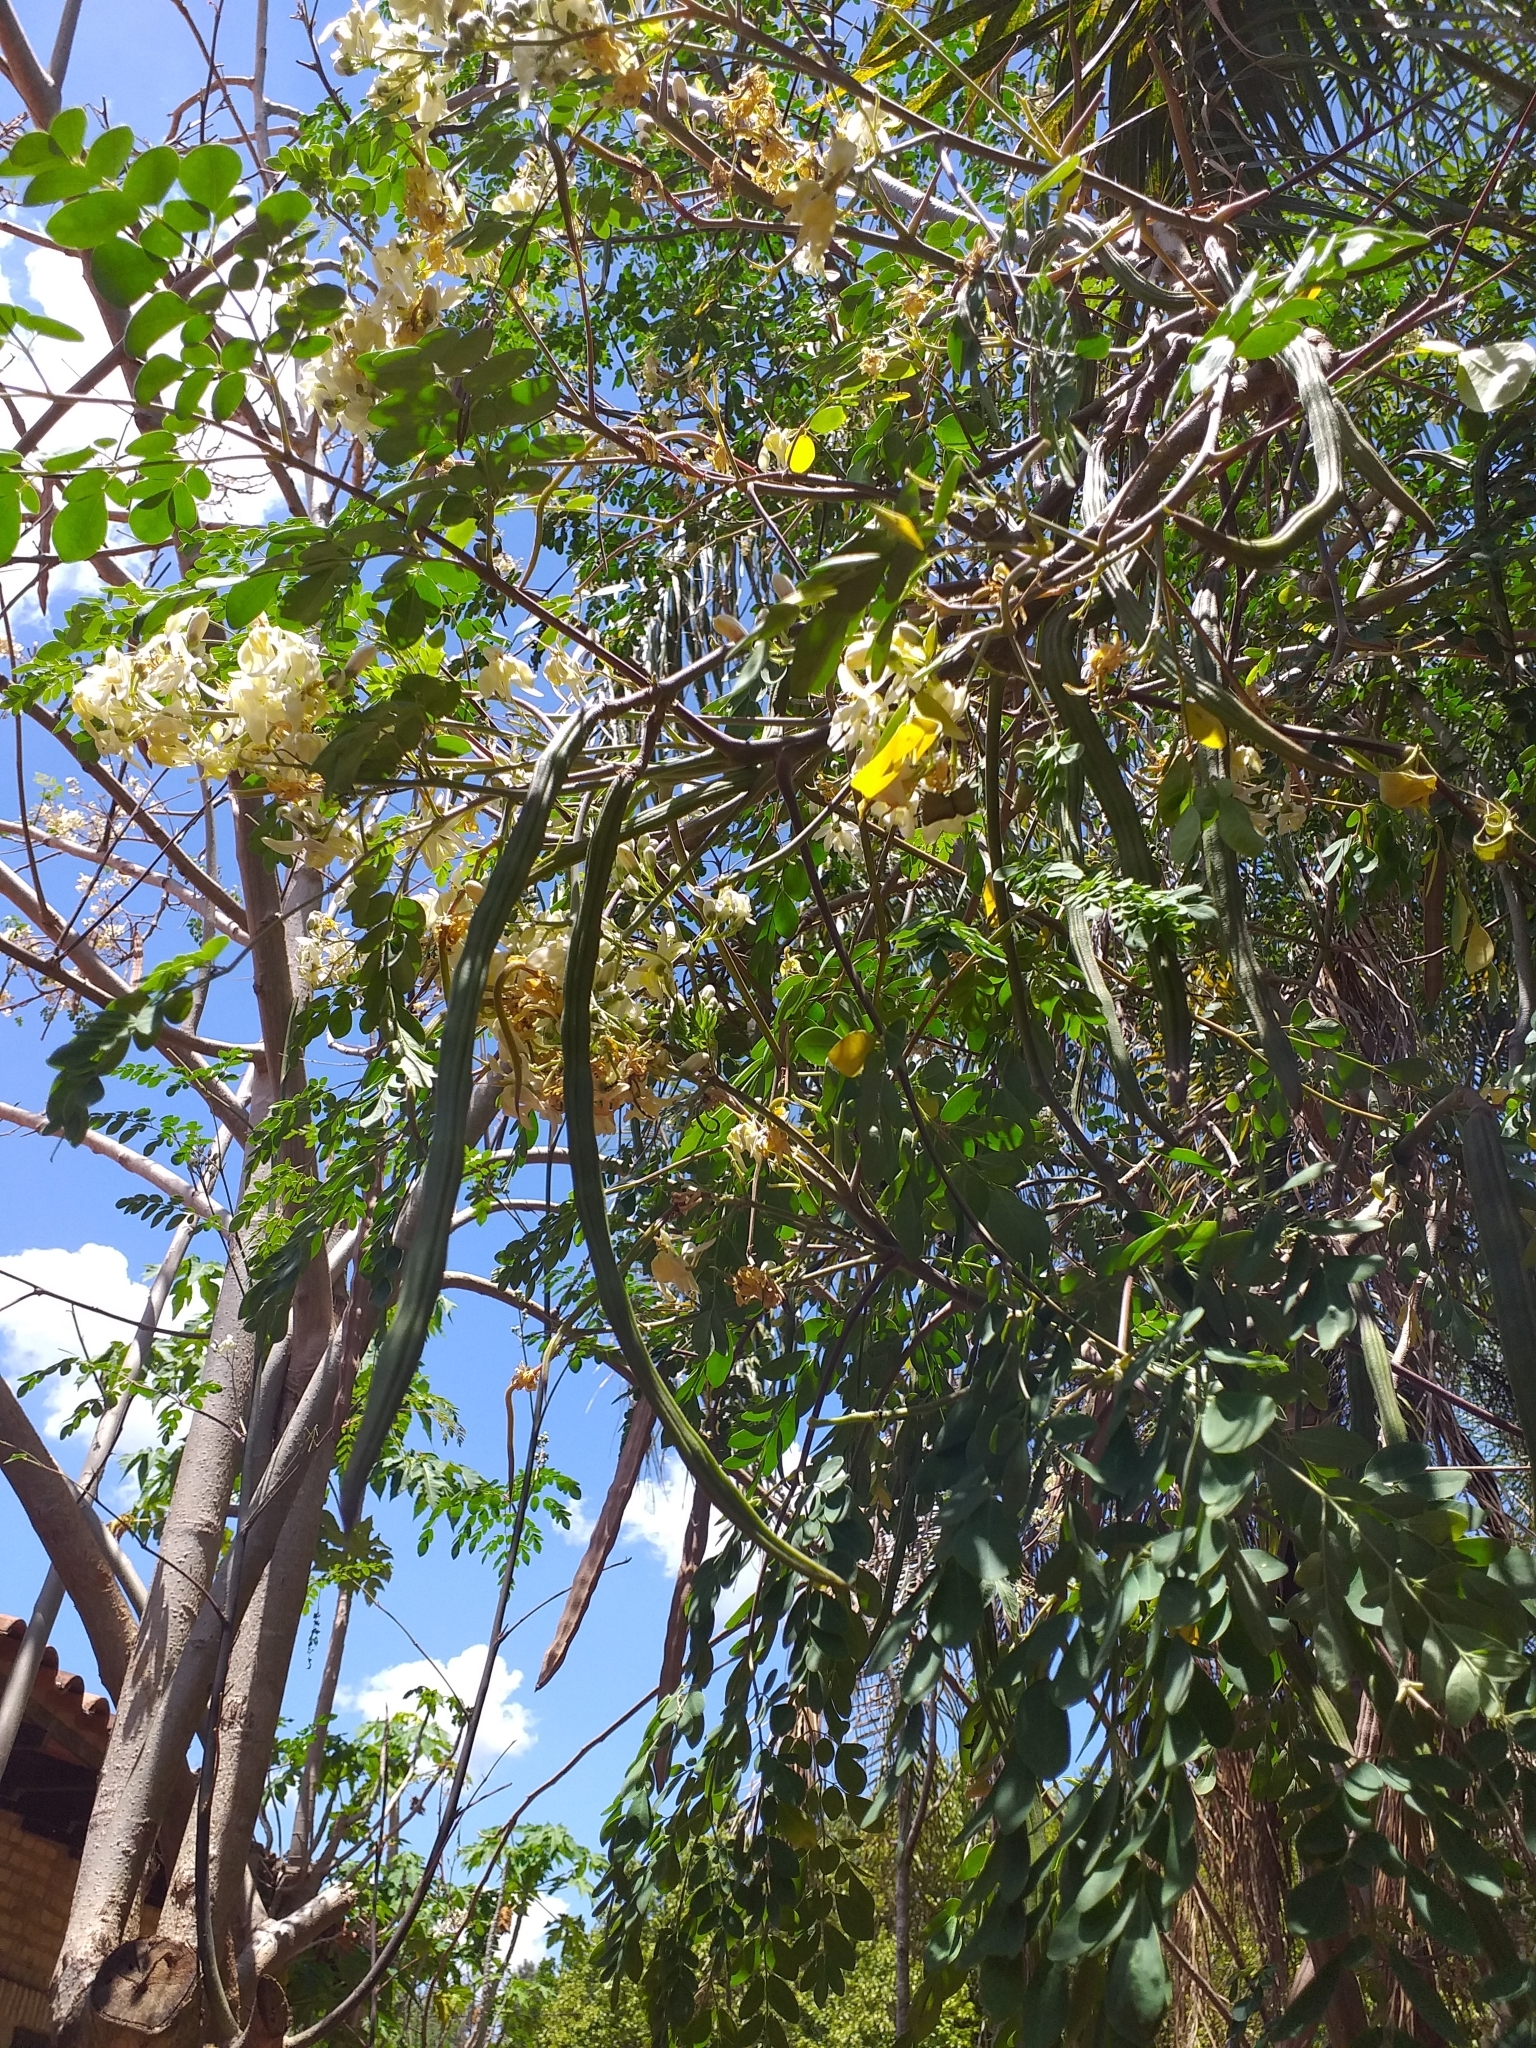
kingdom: Plantae
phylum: Tracheophyta
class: Magnoliopsida
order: Brassicales
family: Moringaceae
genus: Moringa
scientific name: Moringa oleifera
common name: Horseradish-tree
